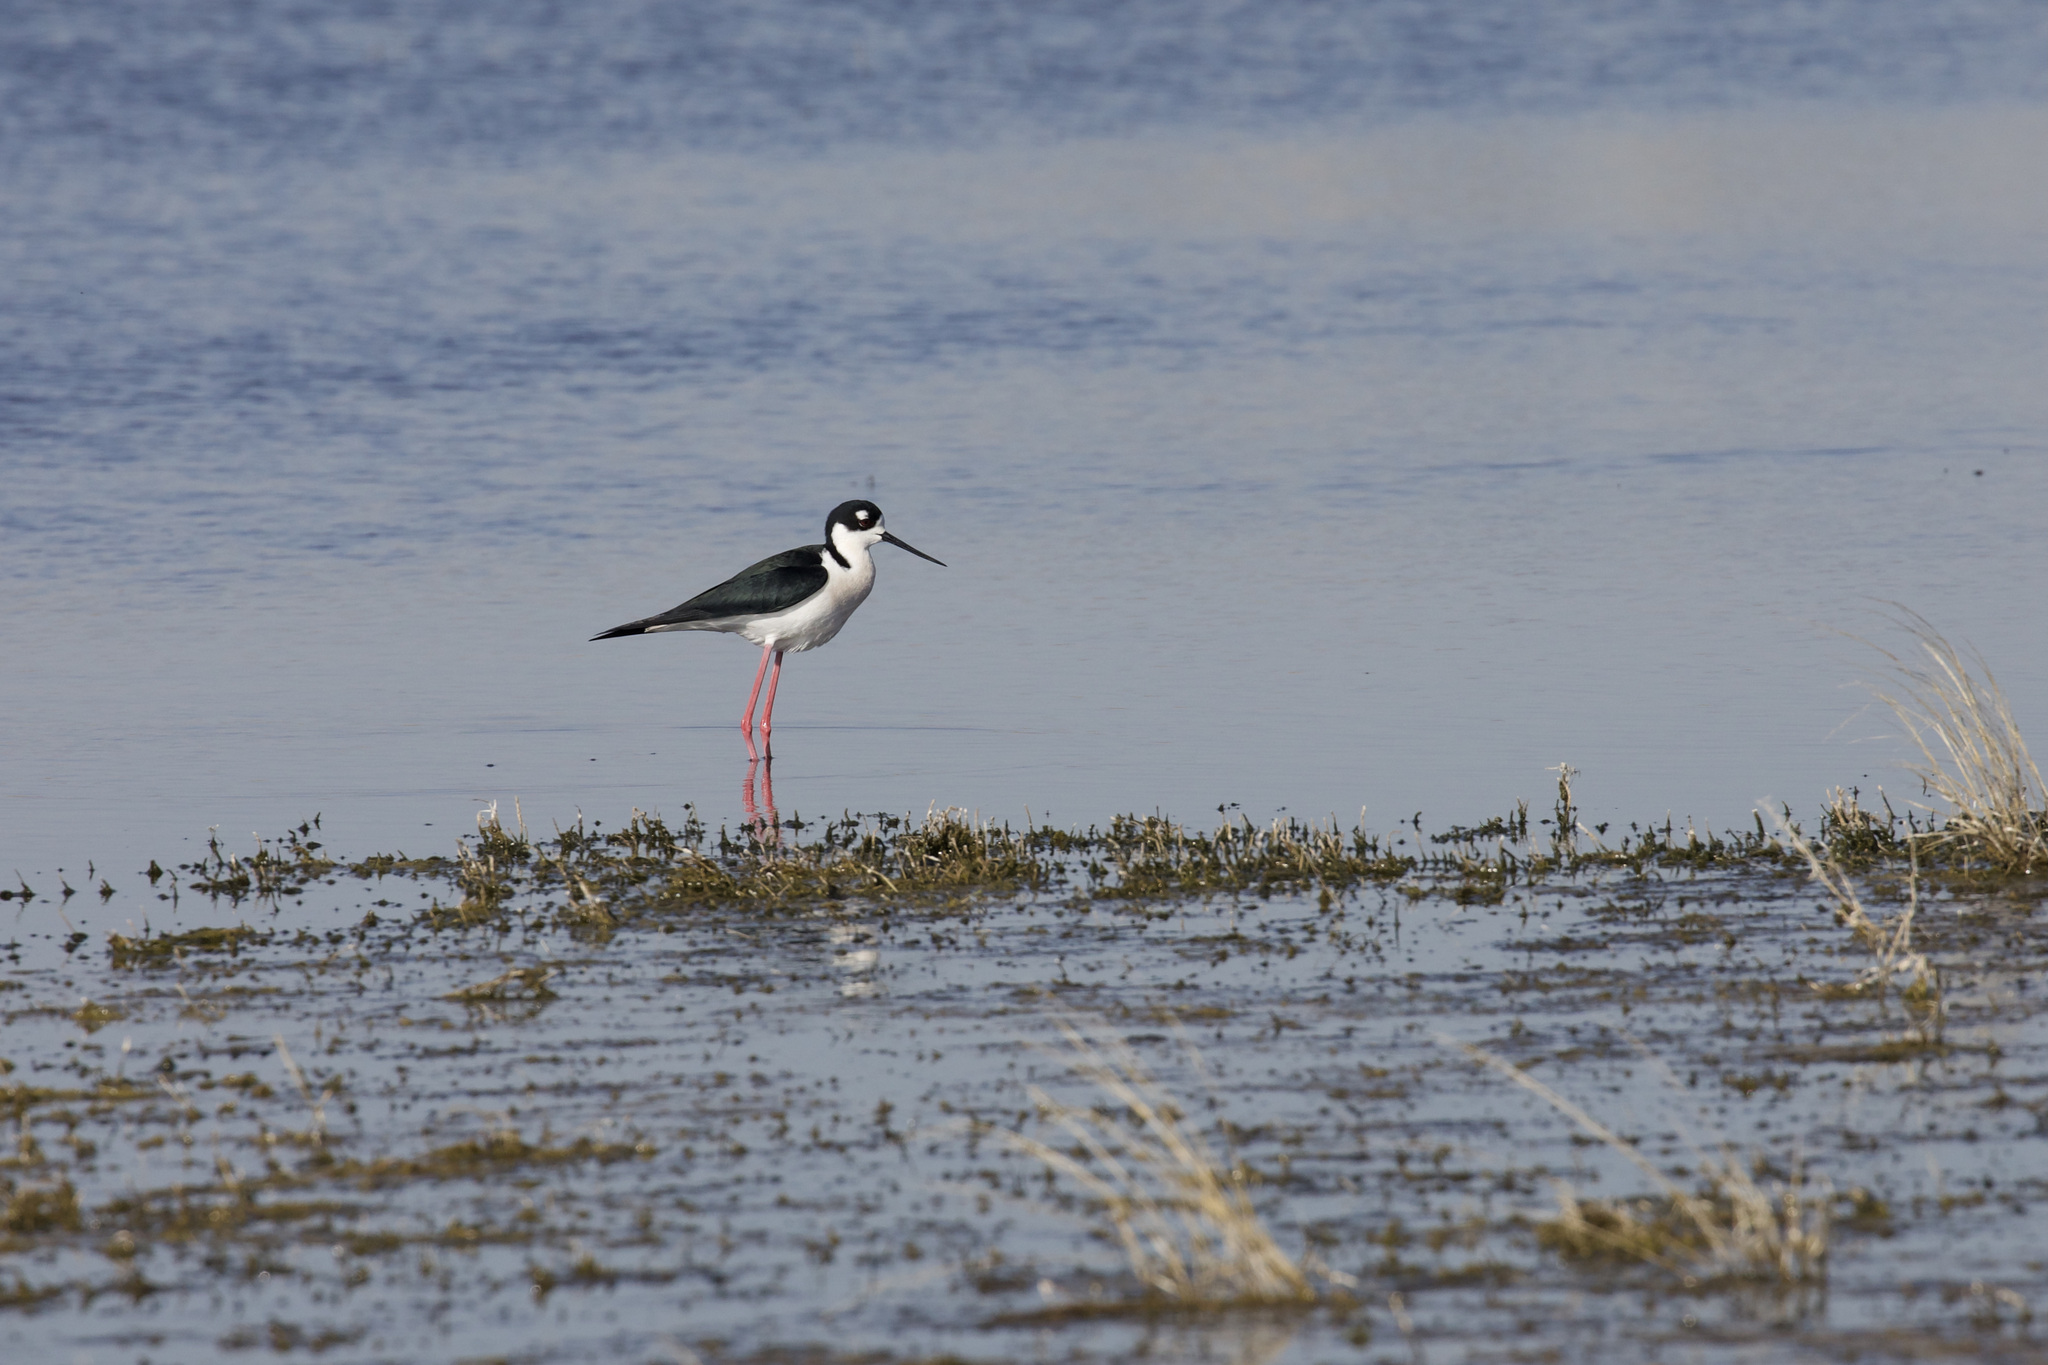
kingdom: Animalia
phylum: Chordata
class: Aves
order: Charadriiformes
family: Recurvirostridae
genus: Himantopus
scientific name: Himantopus mexicanus
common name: Black-necked stilt
